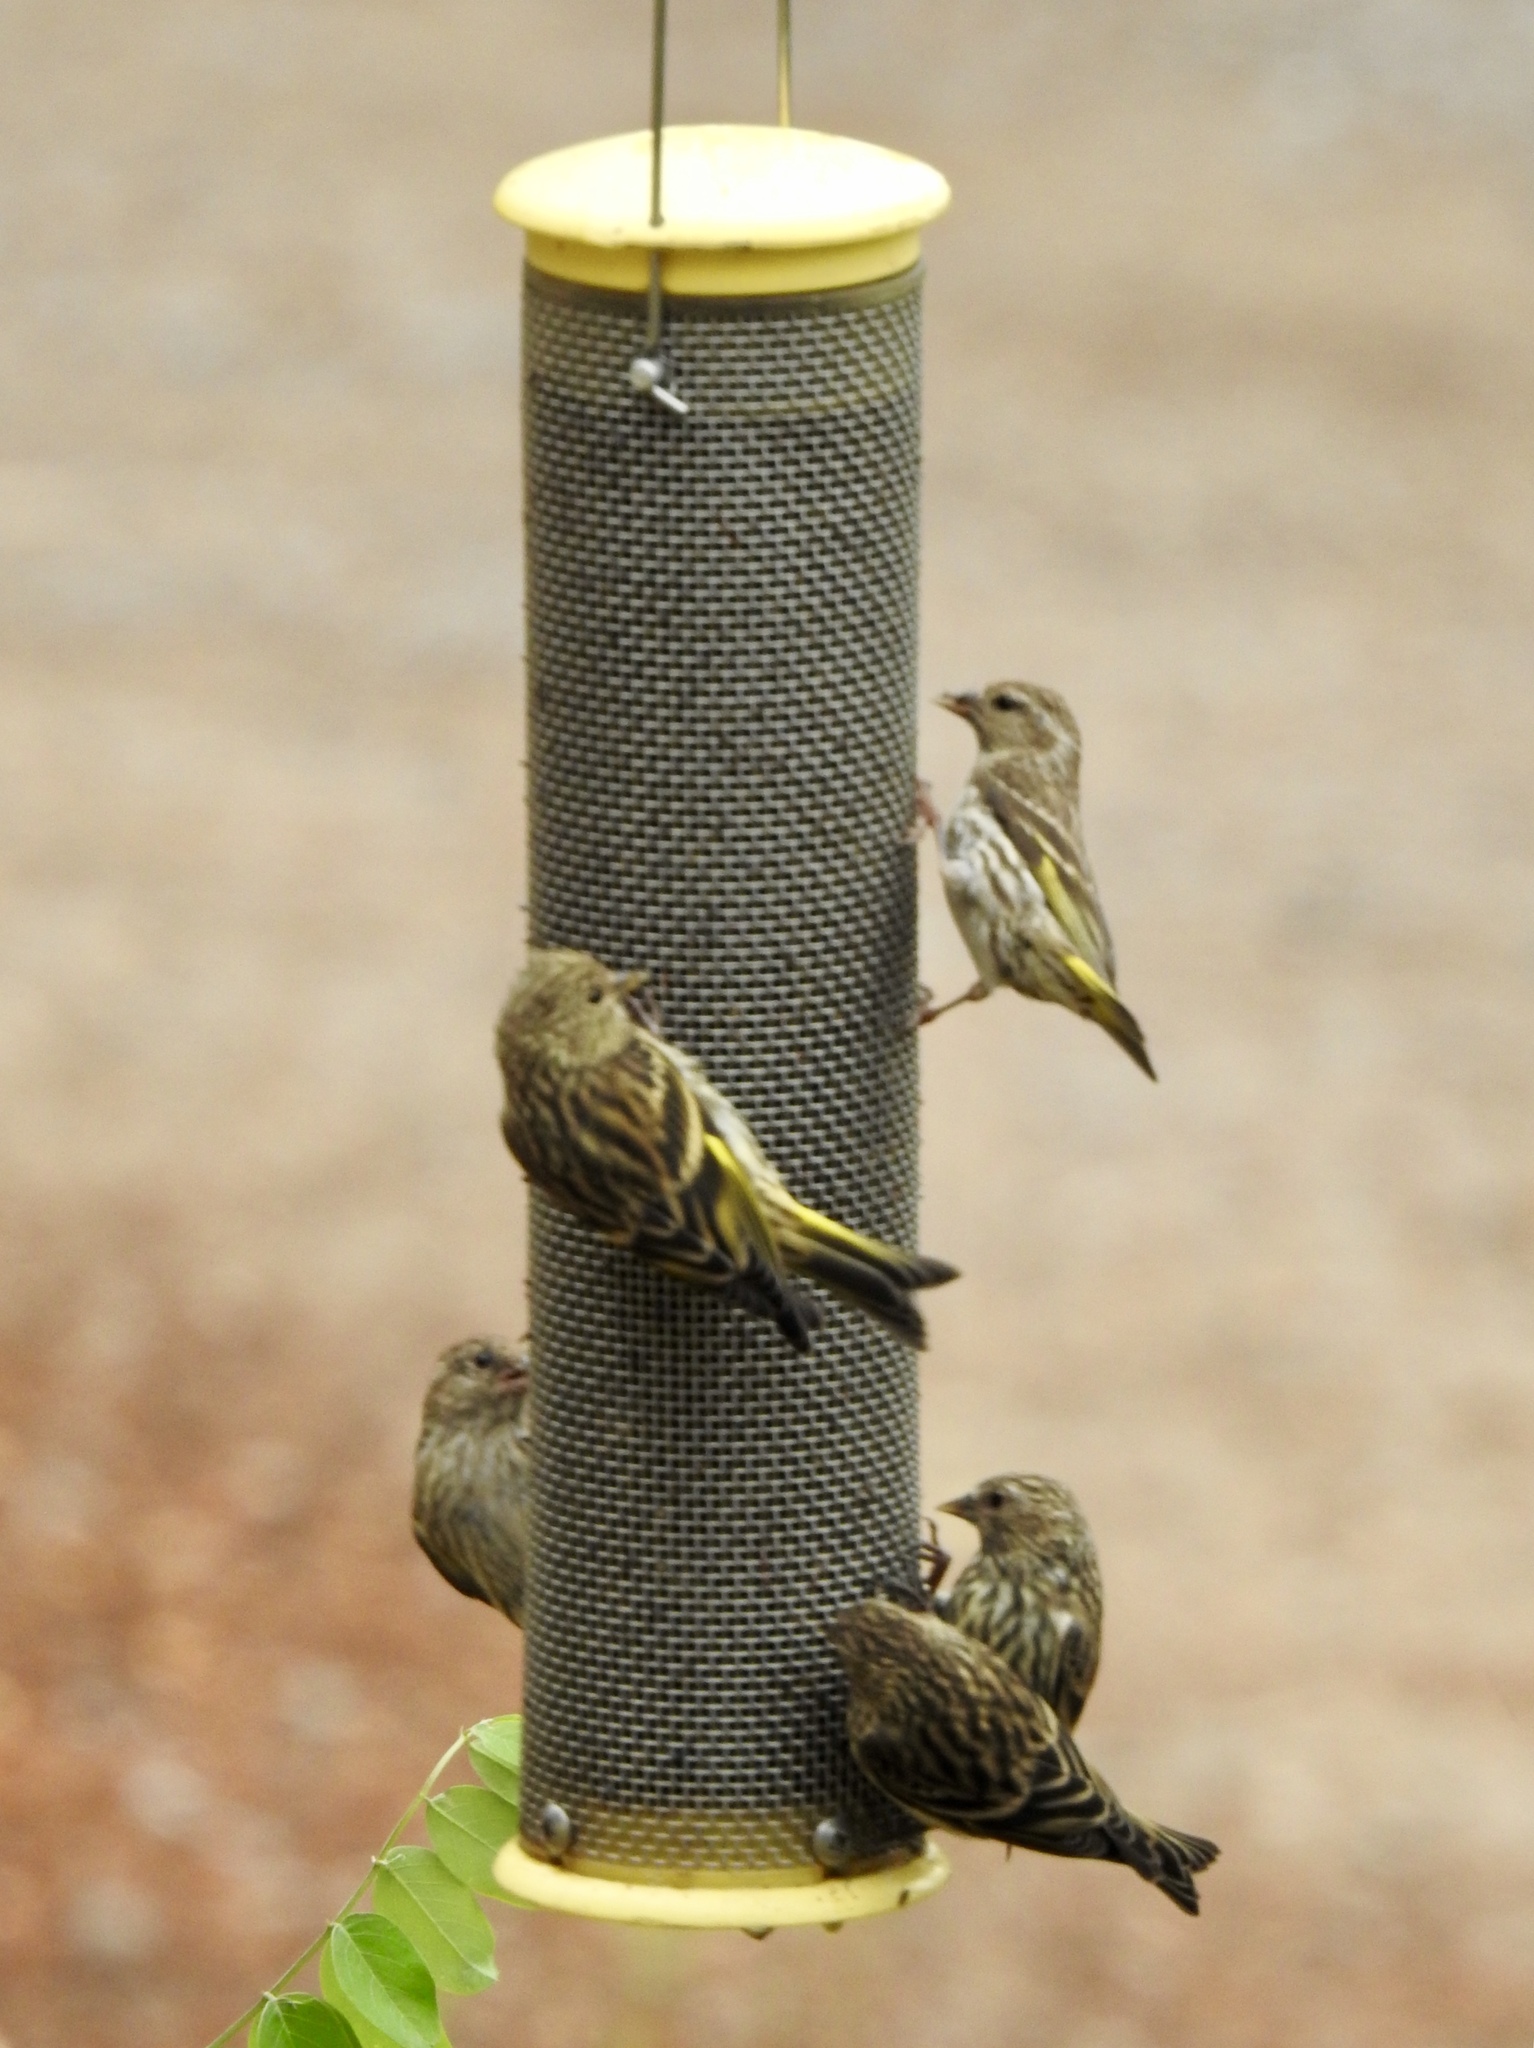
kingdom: Animalia
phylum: Chordata
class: Aves
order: Passeriformes
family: Fringillidae
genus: Spinus
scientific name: Spinus pinus
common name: Pine siskin
